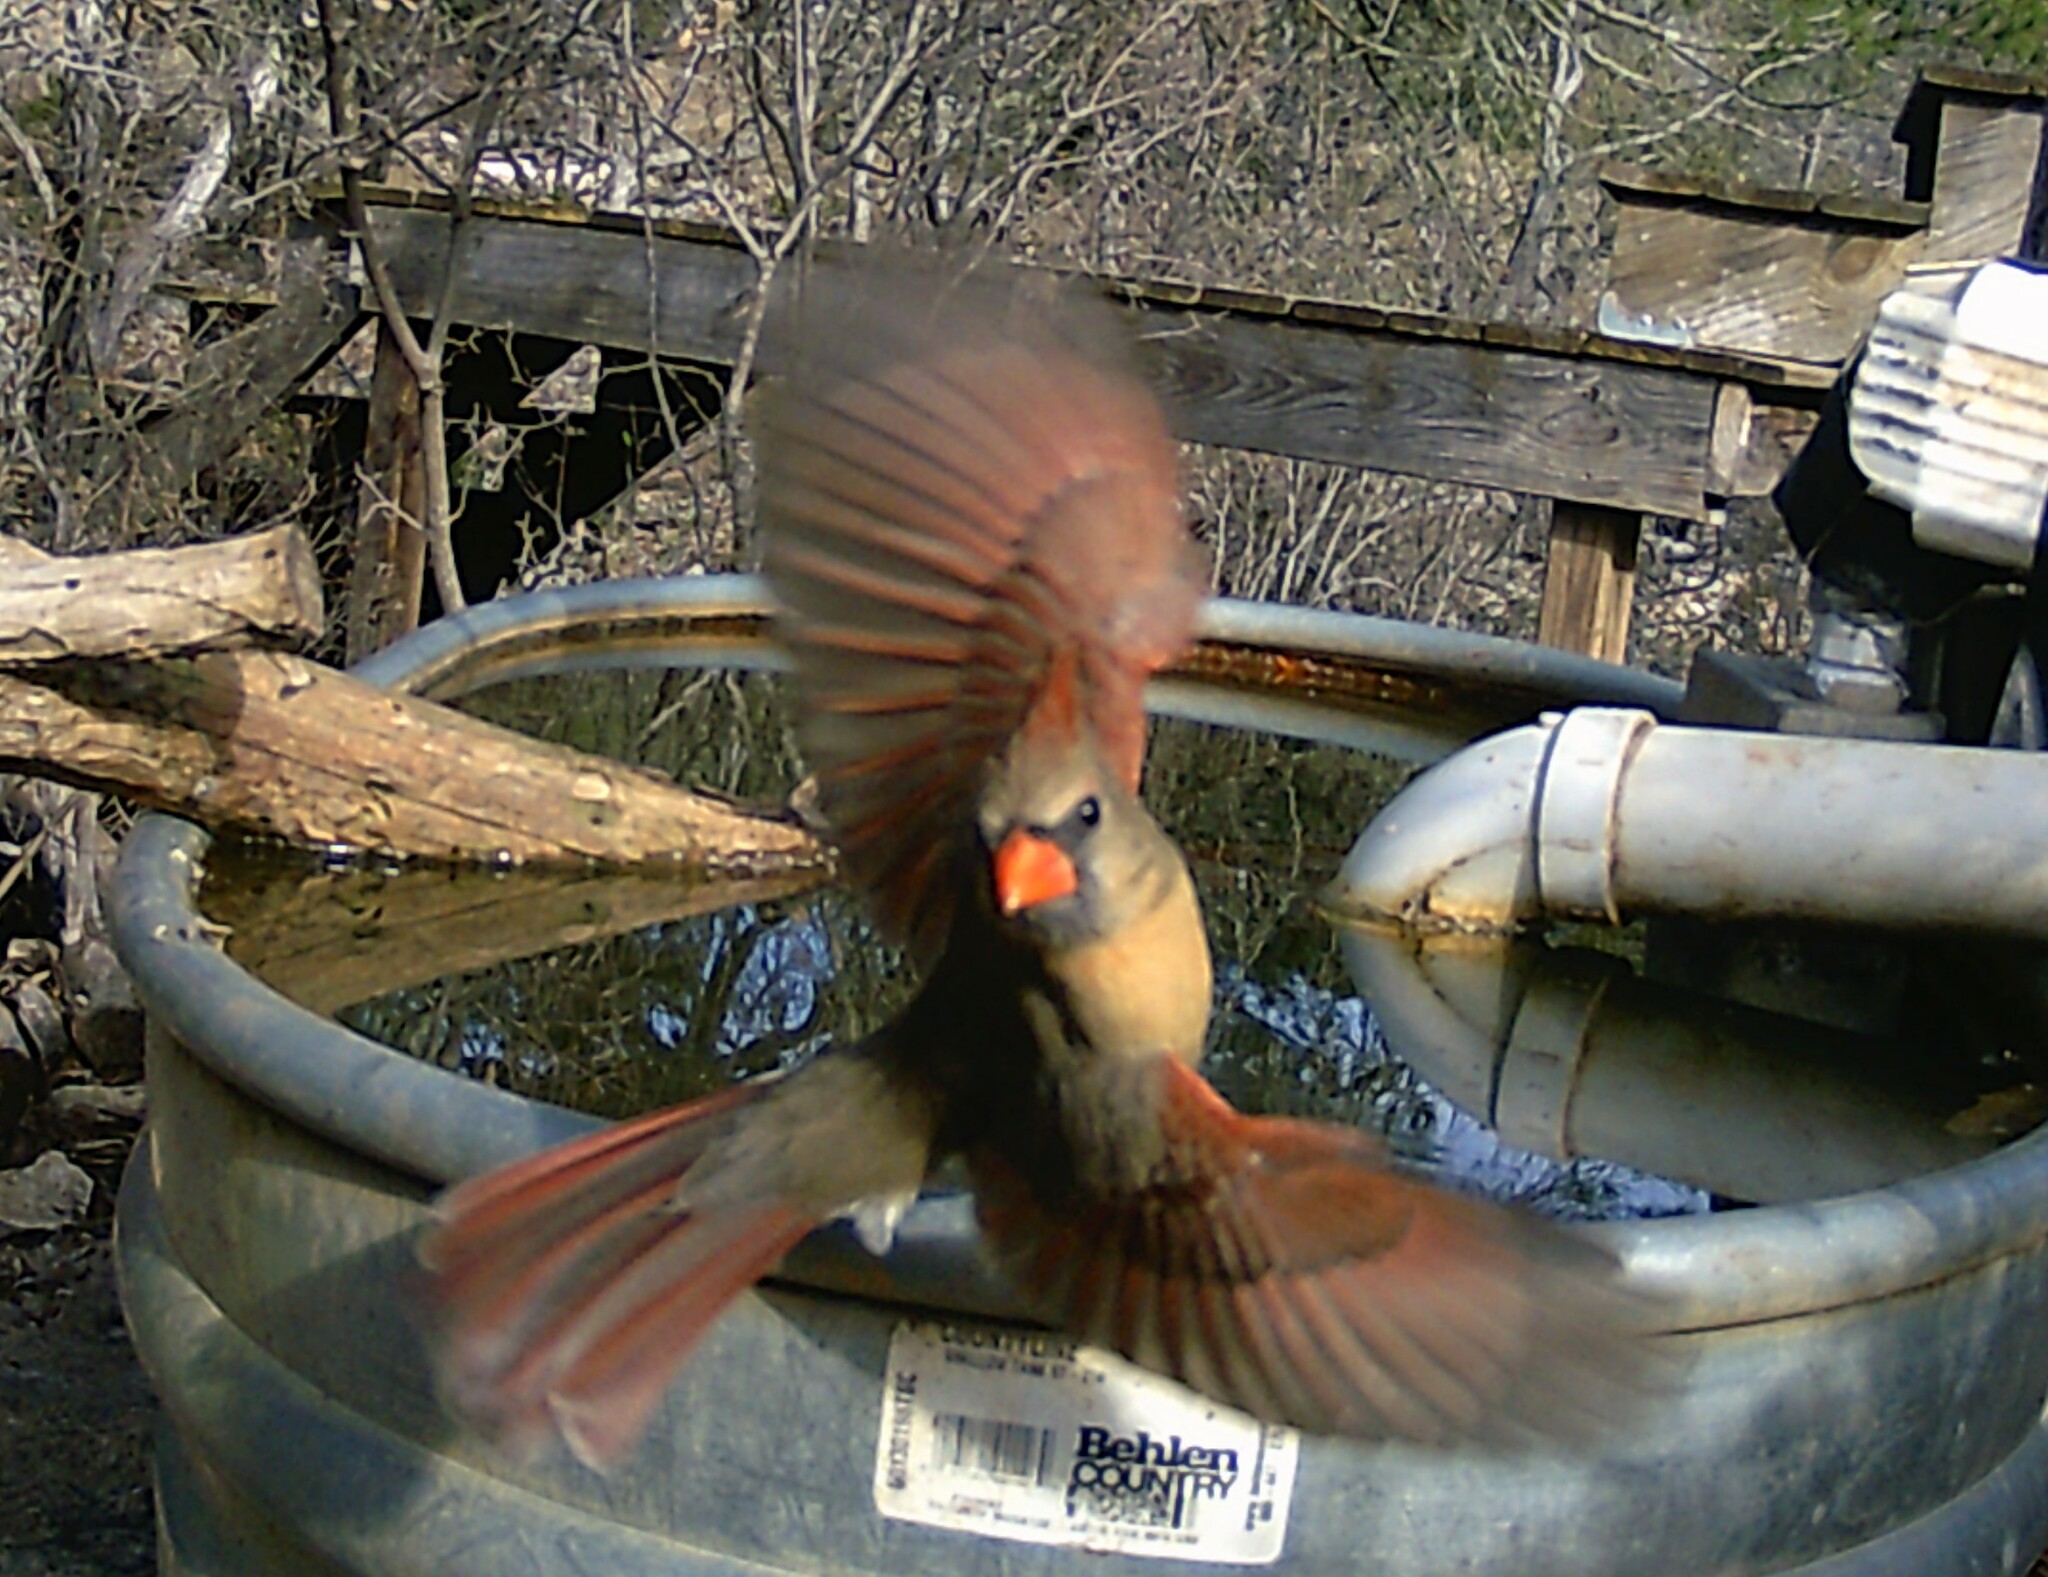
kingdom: Animalia
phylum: Chordata
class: Aves
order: Passeriformes
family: Cardinalidae
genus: Cardinalis
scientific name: Cardinalis cardinalis
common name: Northern cardinal
